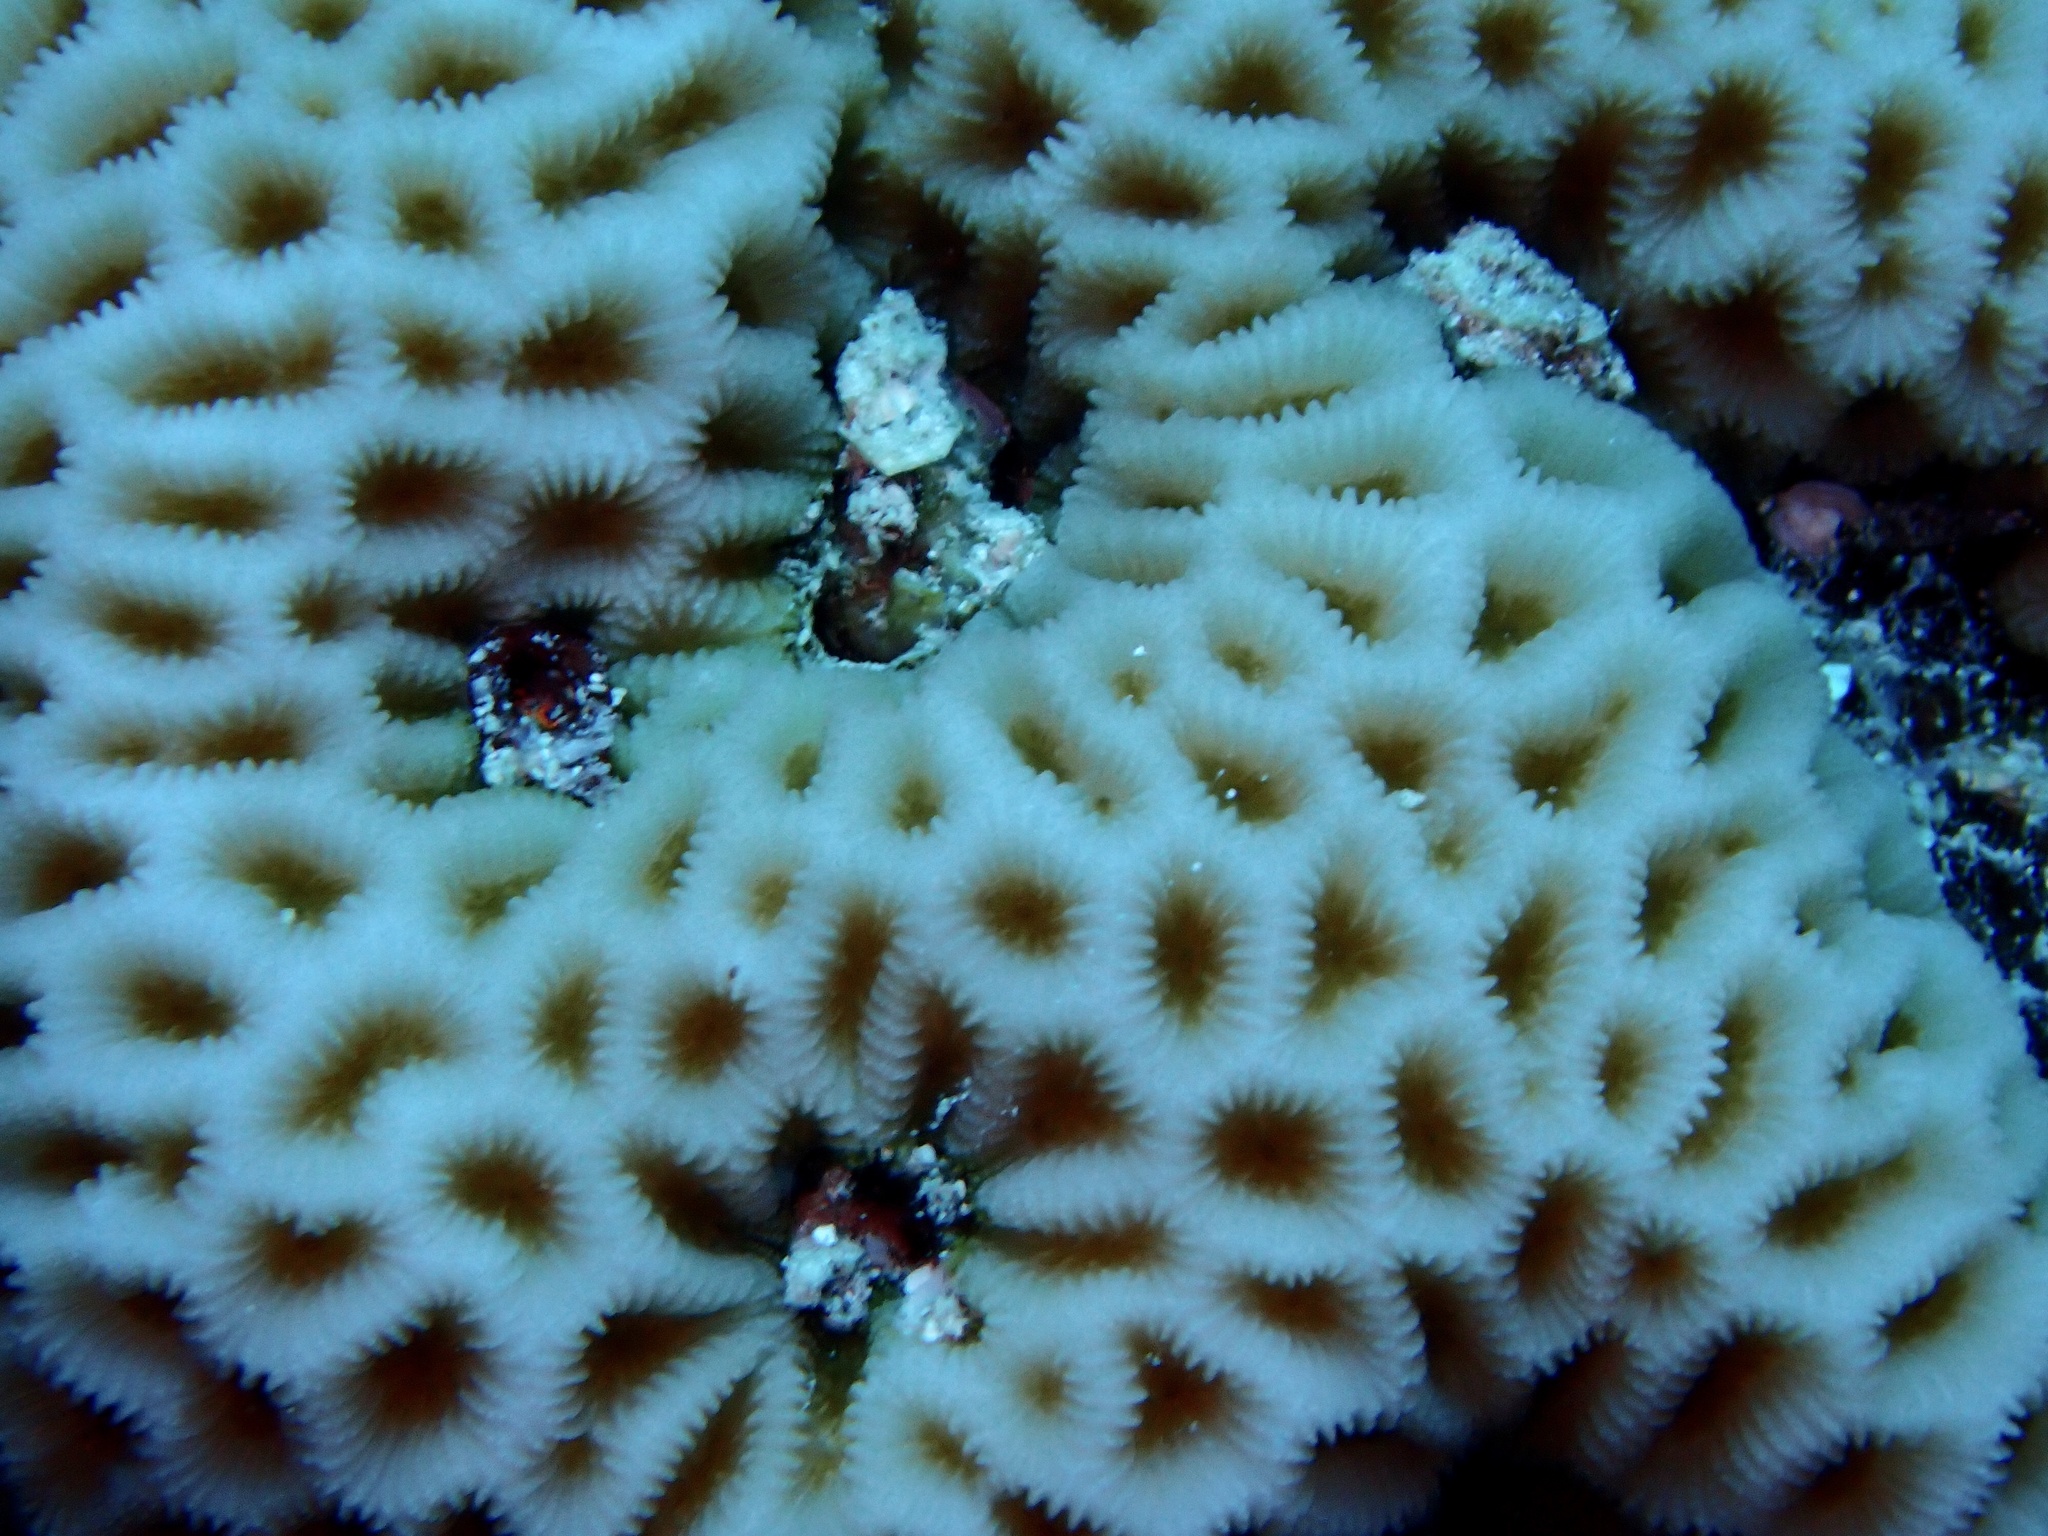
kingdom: Animalia
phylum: Cnidaria
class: Anthozoa
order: Scleractinia
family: Merulinidae
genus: Goniastrea
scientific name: Goniastrea pectinata
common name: Lesser star coral
